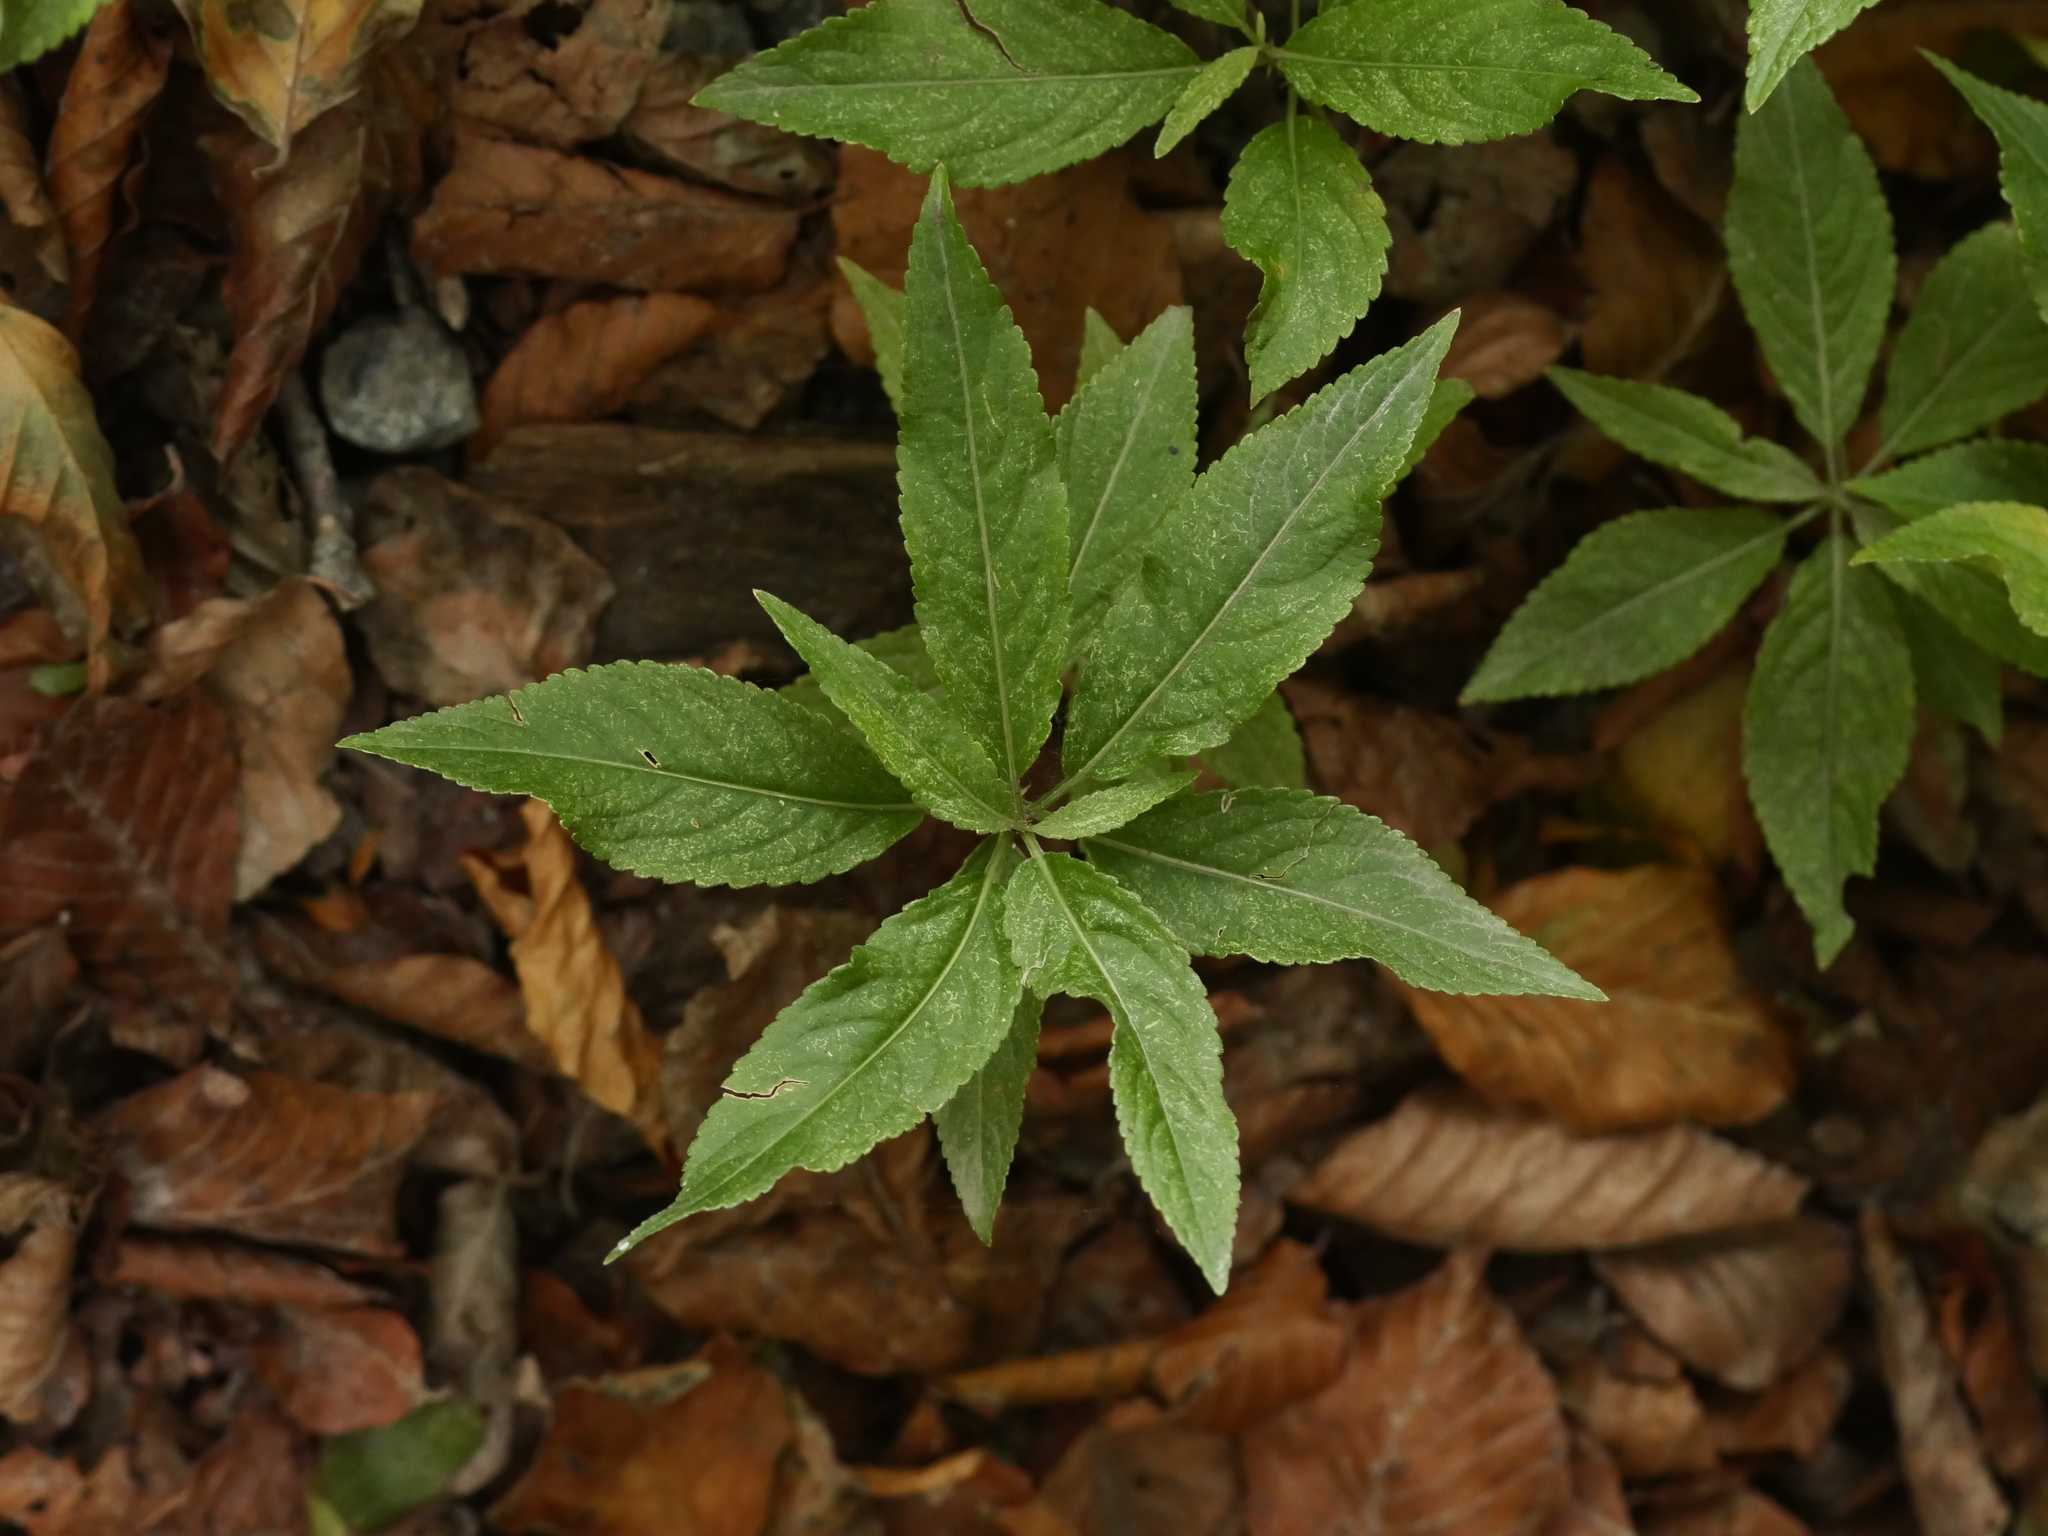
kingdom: Plantae
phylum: Tracheophyta
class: Magnoliopsida
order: Malpighiales
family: Euphorbiaceae
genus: Mercurialis
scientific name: Mercurialis perennis
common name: Dog mercury
